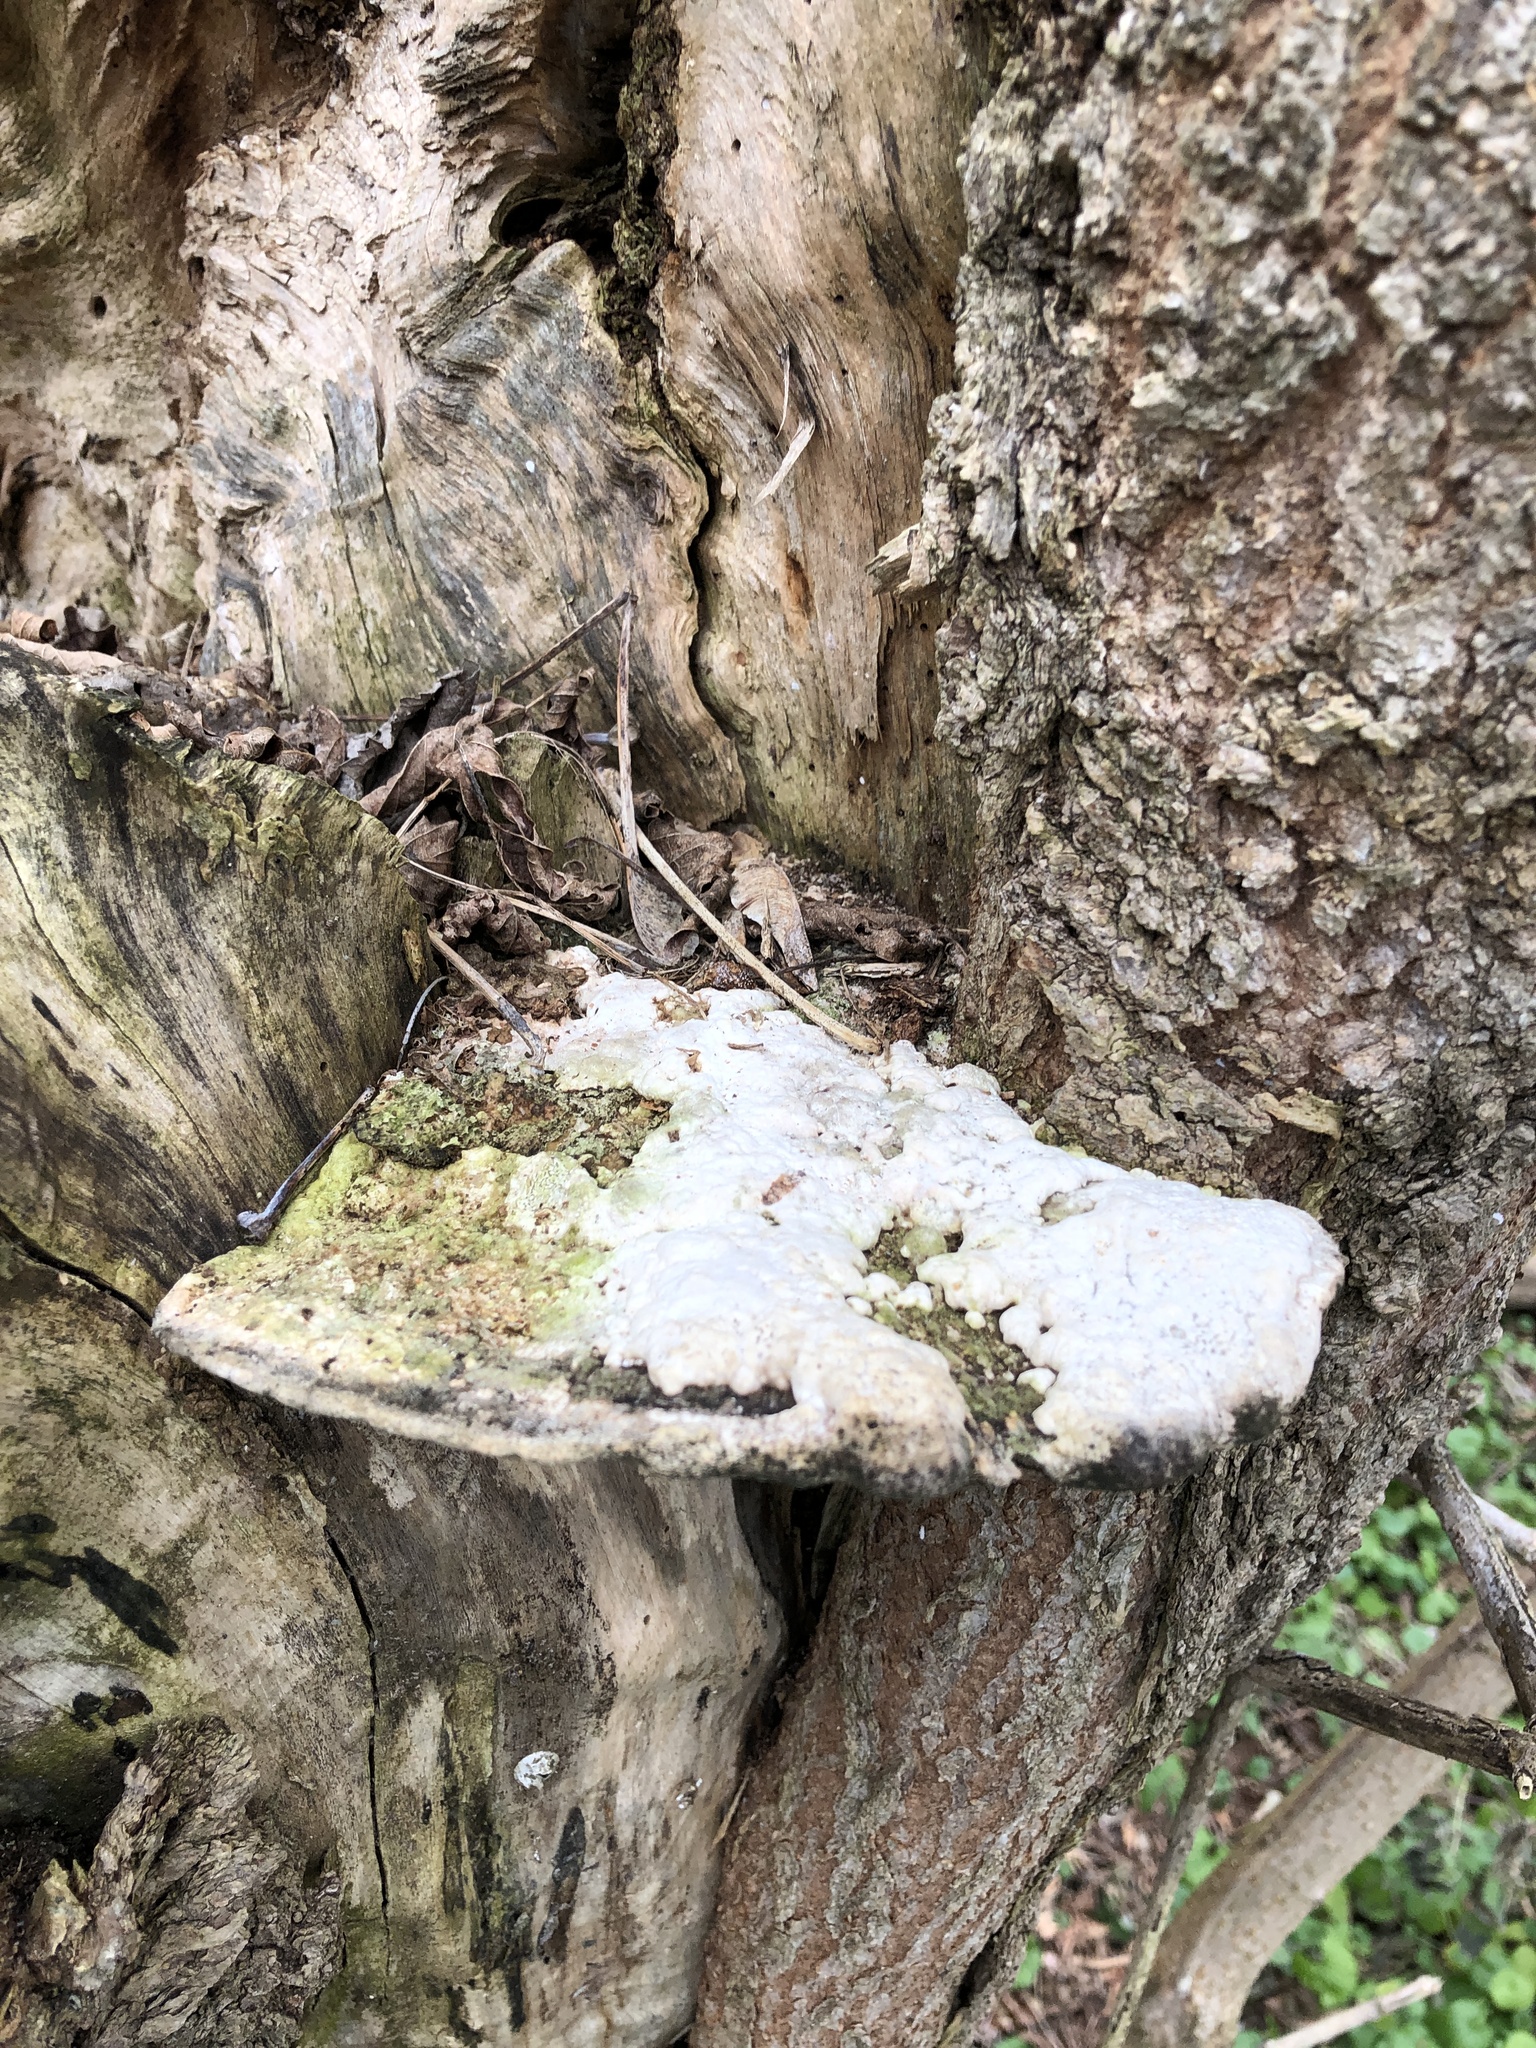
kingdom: Fungi
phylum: Basidiomycota
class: Agaricomycetes
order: Polyporales
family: Polyporaceae
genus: Trametes
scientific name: Trametes gibbosa
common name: Lumpy bracket
